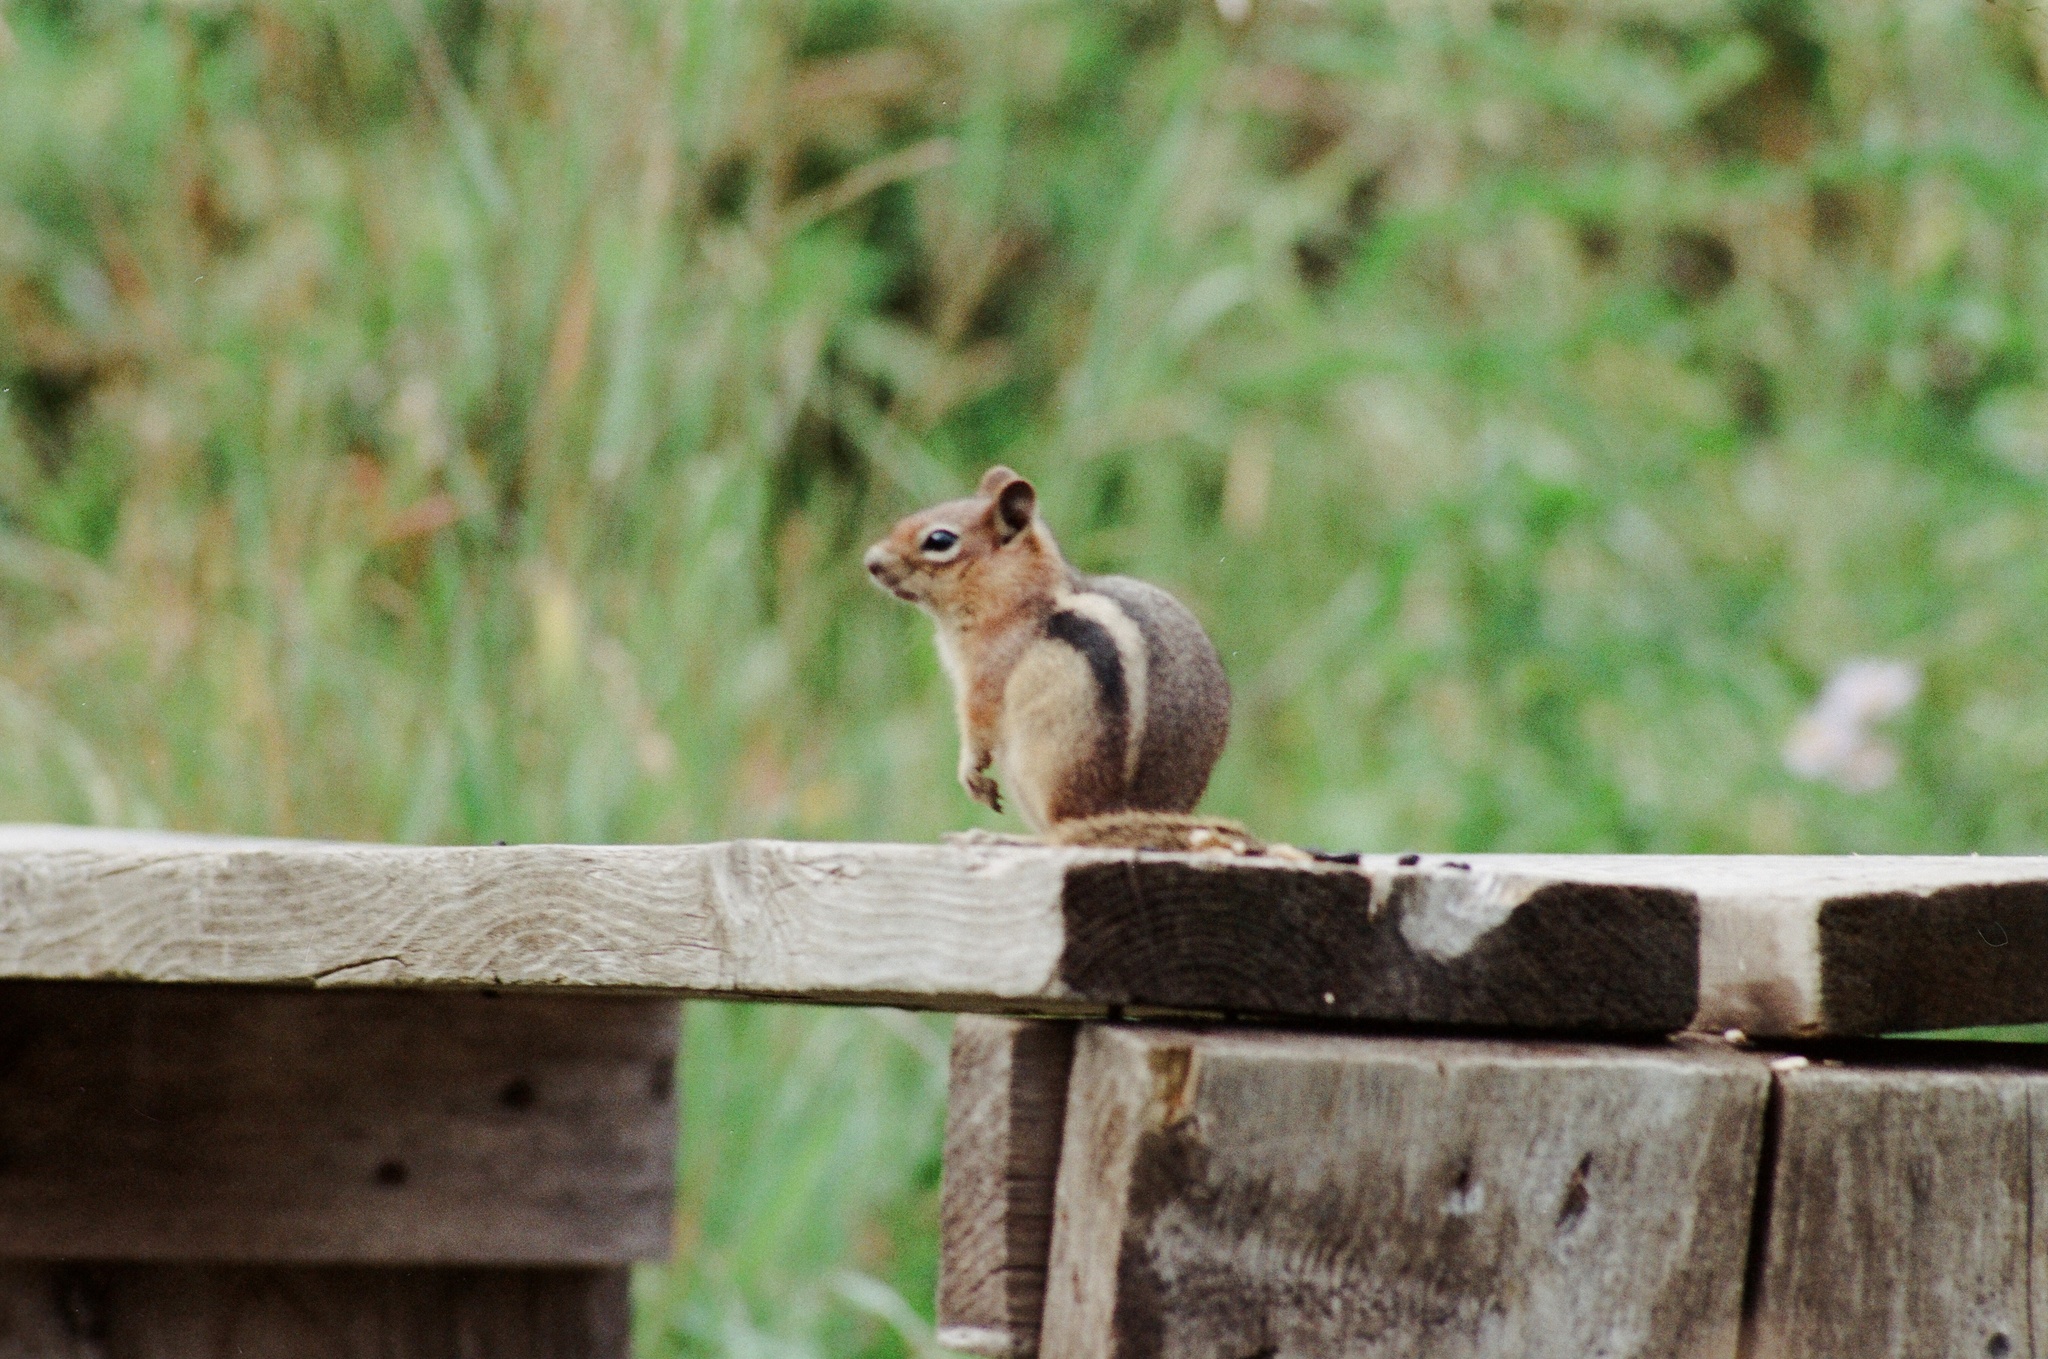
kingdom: Animalia
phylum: Chordata
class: Mammalia
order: Rodentia
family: Sciuridae
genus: Callospermophilus
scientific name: Callospermophilus lateralis
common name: Golden-mantled ground squirrel
